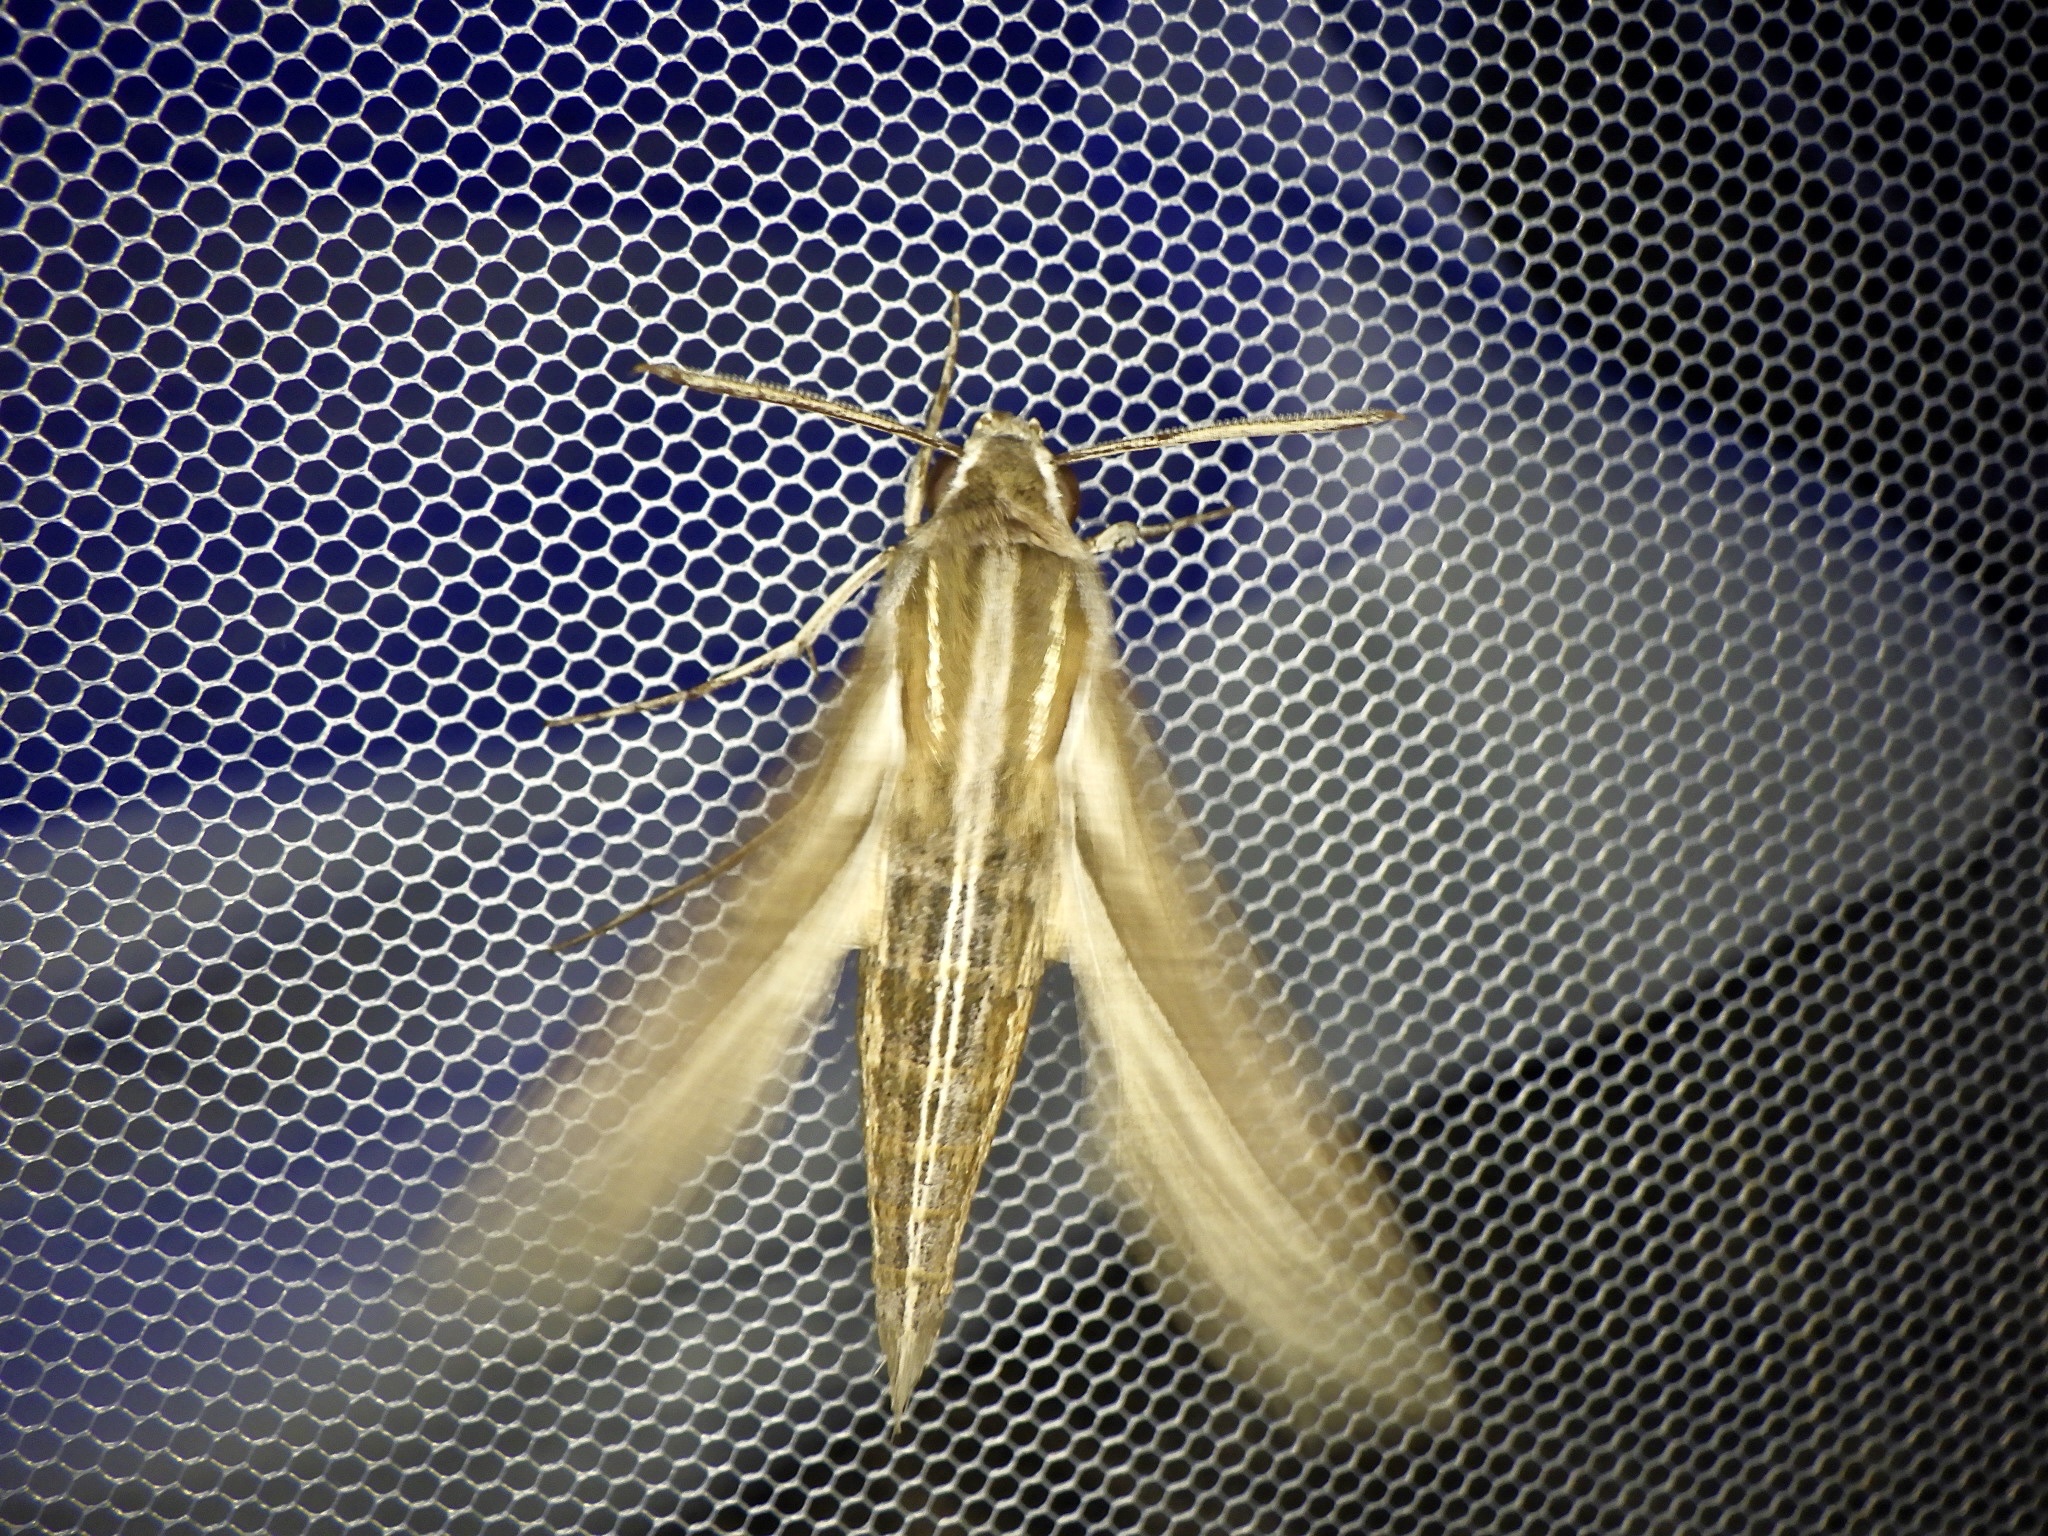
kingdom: Animalia
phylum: Arthropoda
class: Insecta
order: Lepidoptera
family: Sphingidae
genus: Theretra
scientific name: Theretra oldenlandiae
